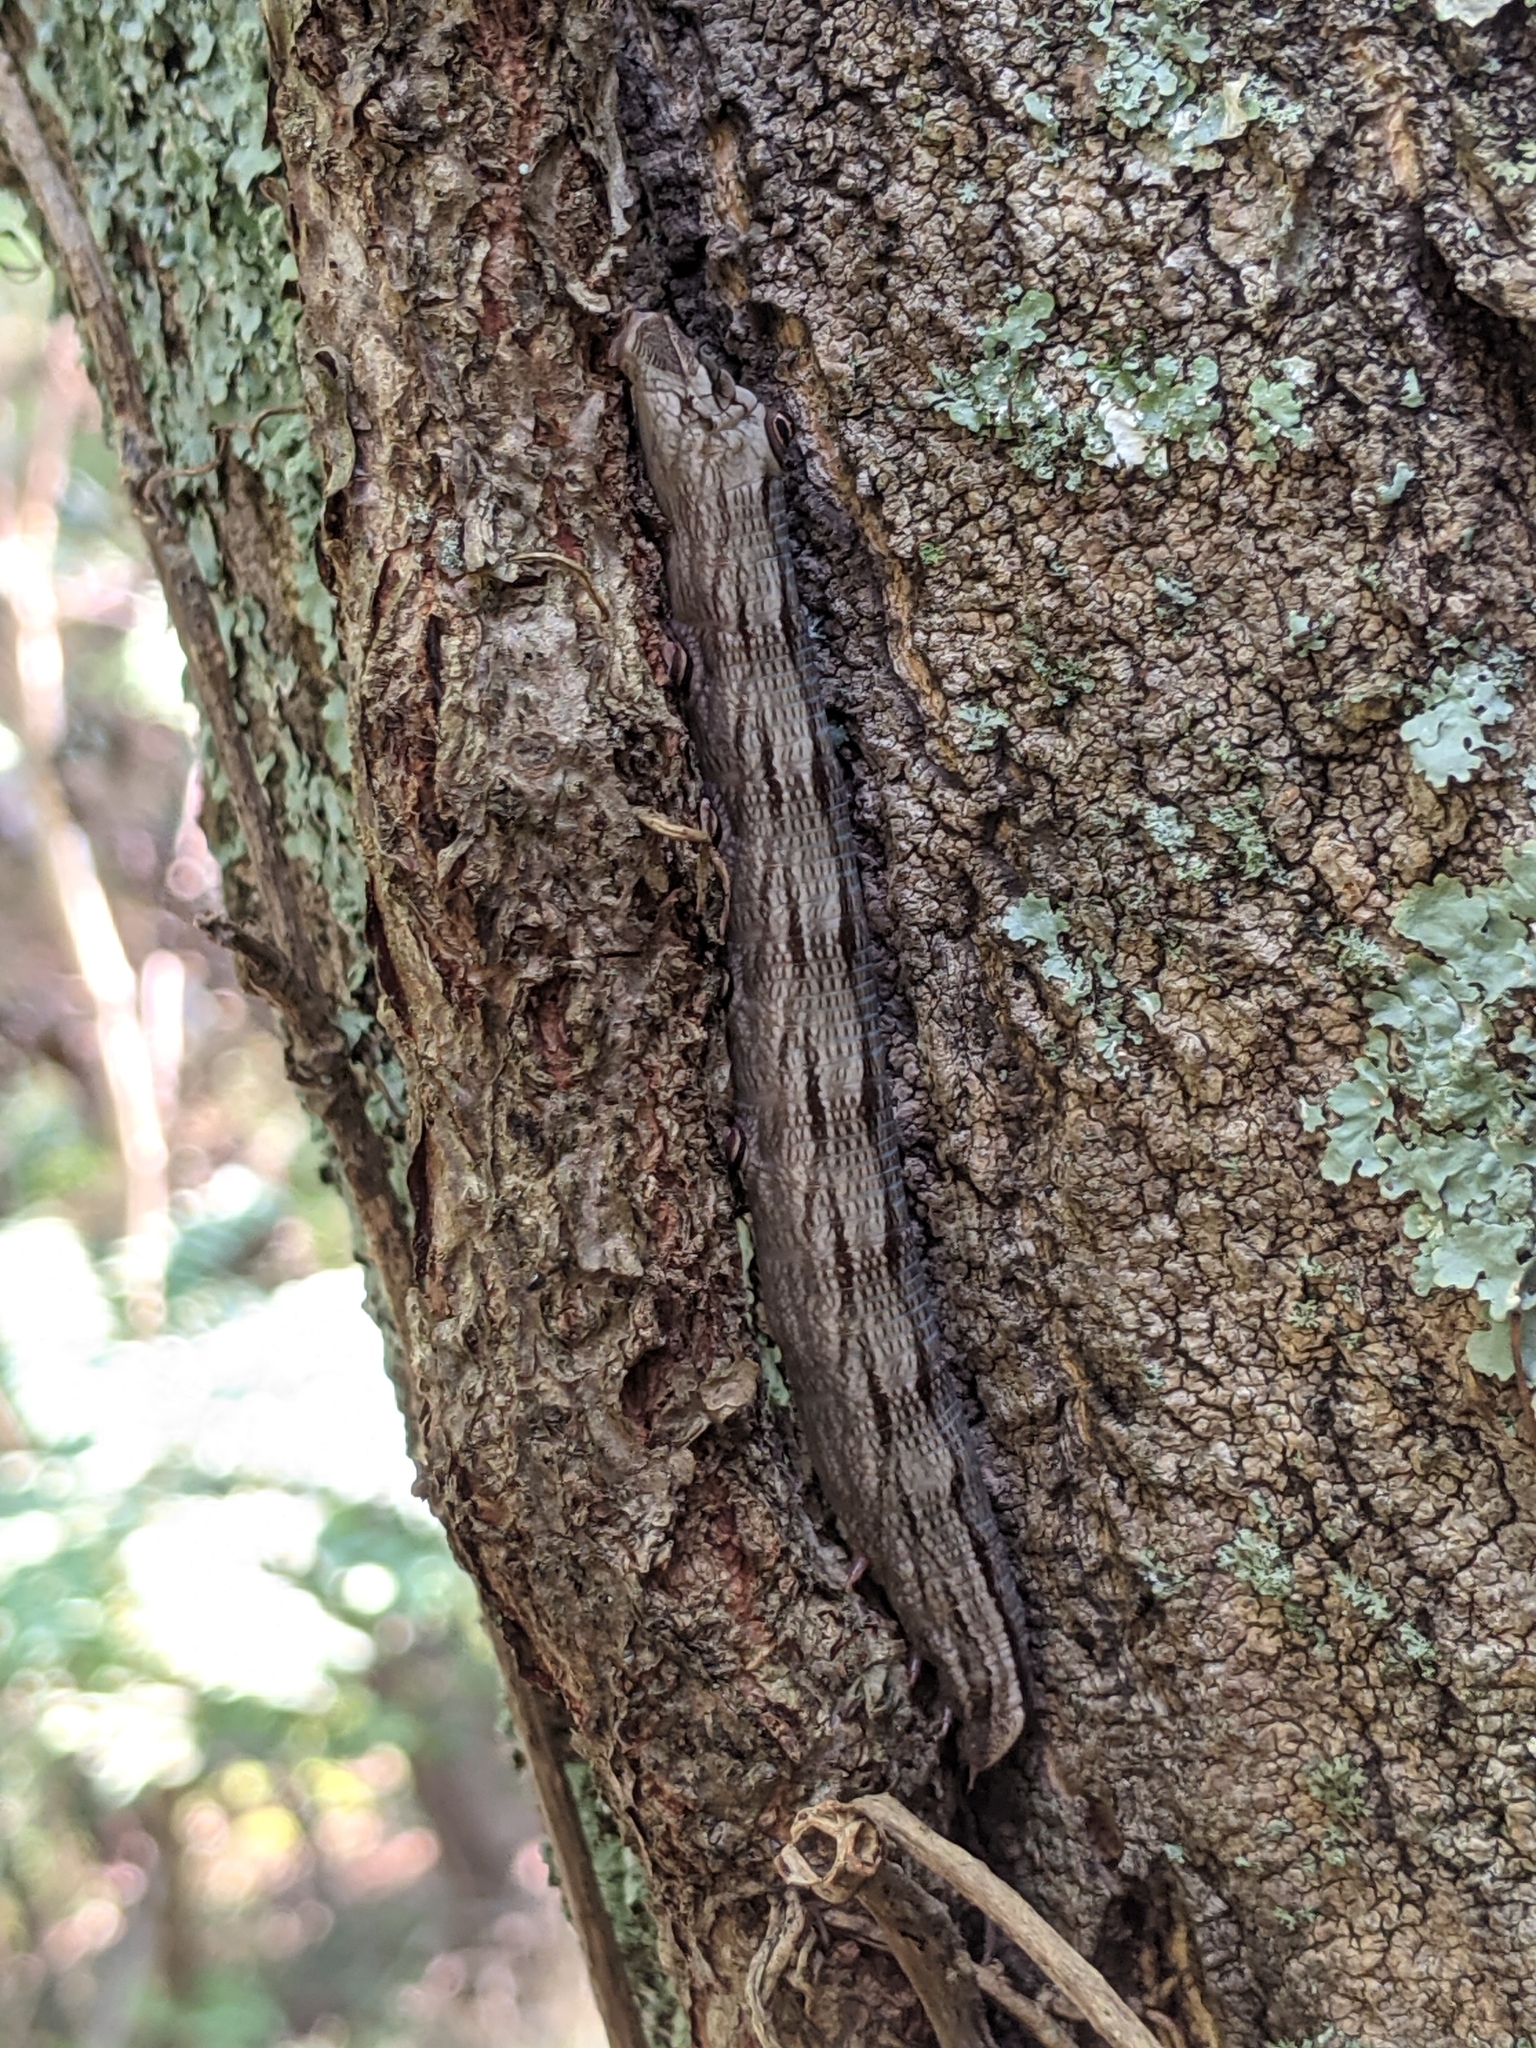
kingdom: Animalia
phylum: Arthropoda
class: Insecta
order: Lepidoptera
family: Sphingidae
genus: Sphecodina
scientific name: Sphecodina abbottii
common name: Abbott's sphinx
